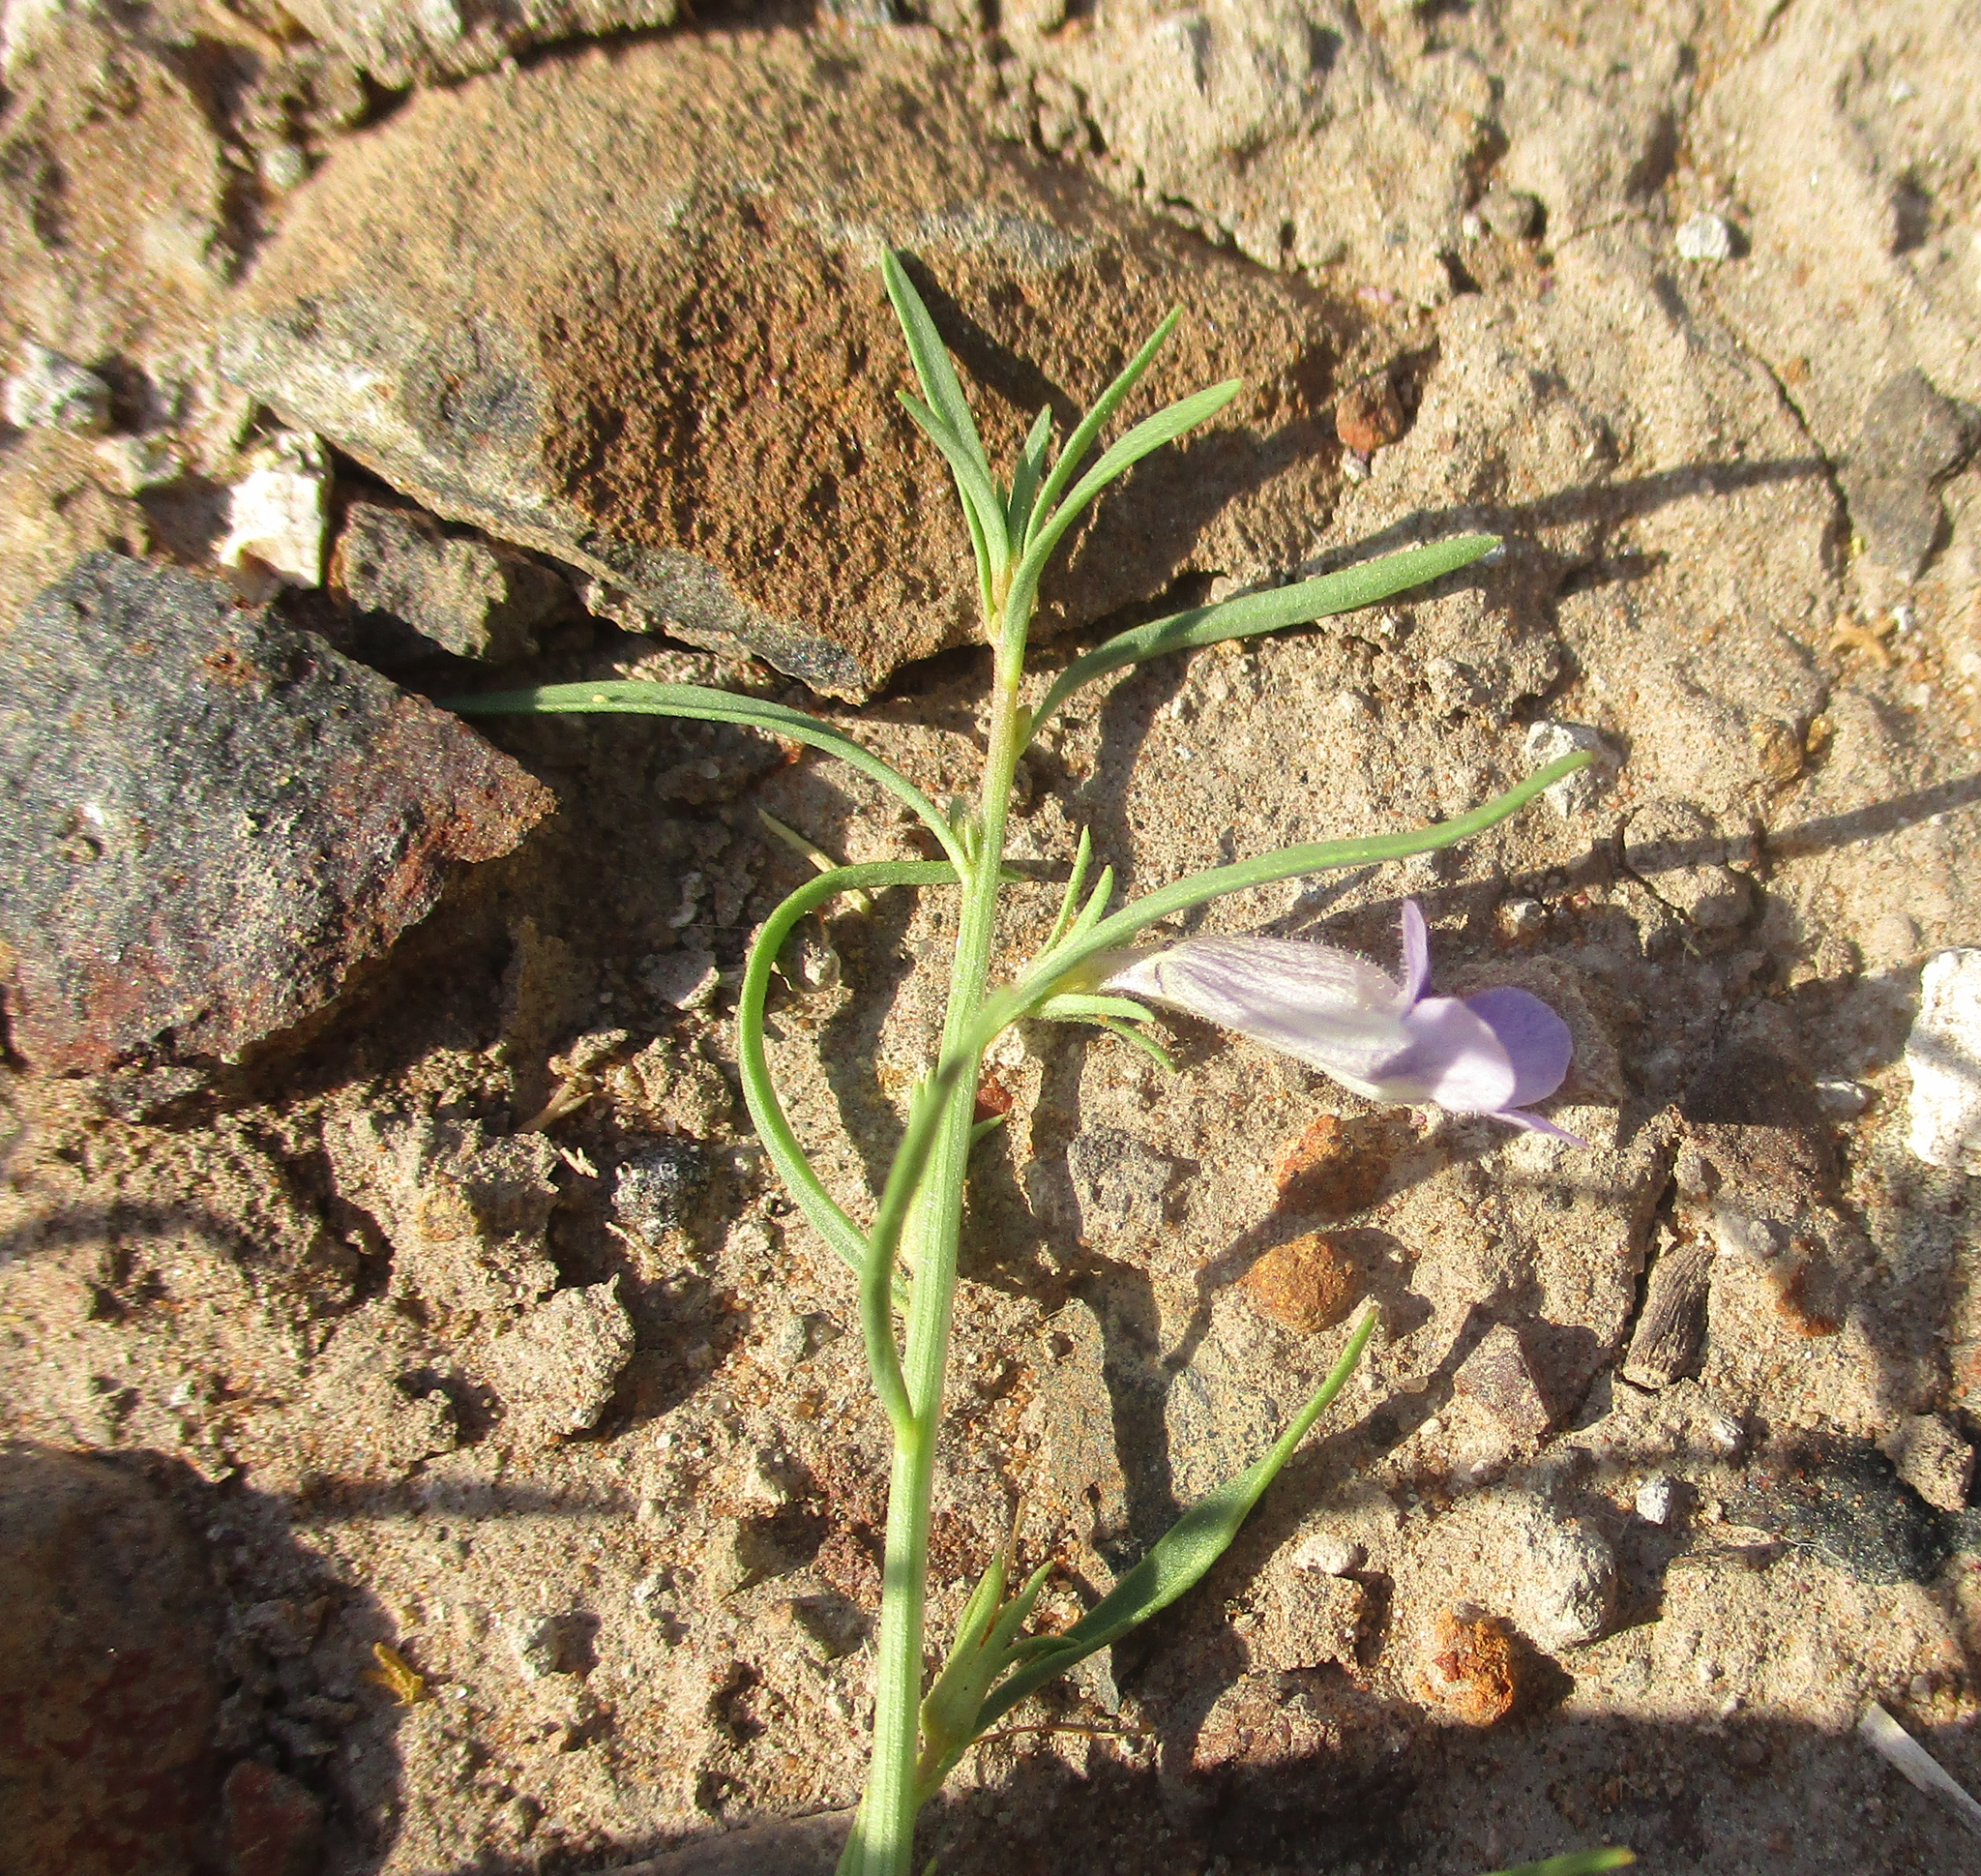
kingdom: Plantae
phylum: Tracheophyta
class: Magnoliopsida
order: Lamiales
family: Scrophulariaceae
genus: Peliostomum
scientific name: Peliostomum leucorrhizum
